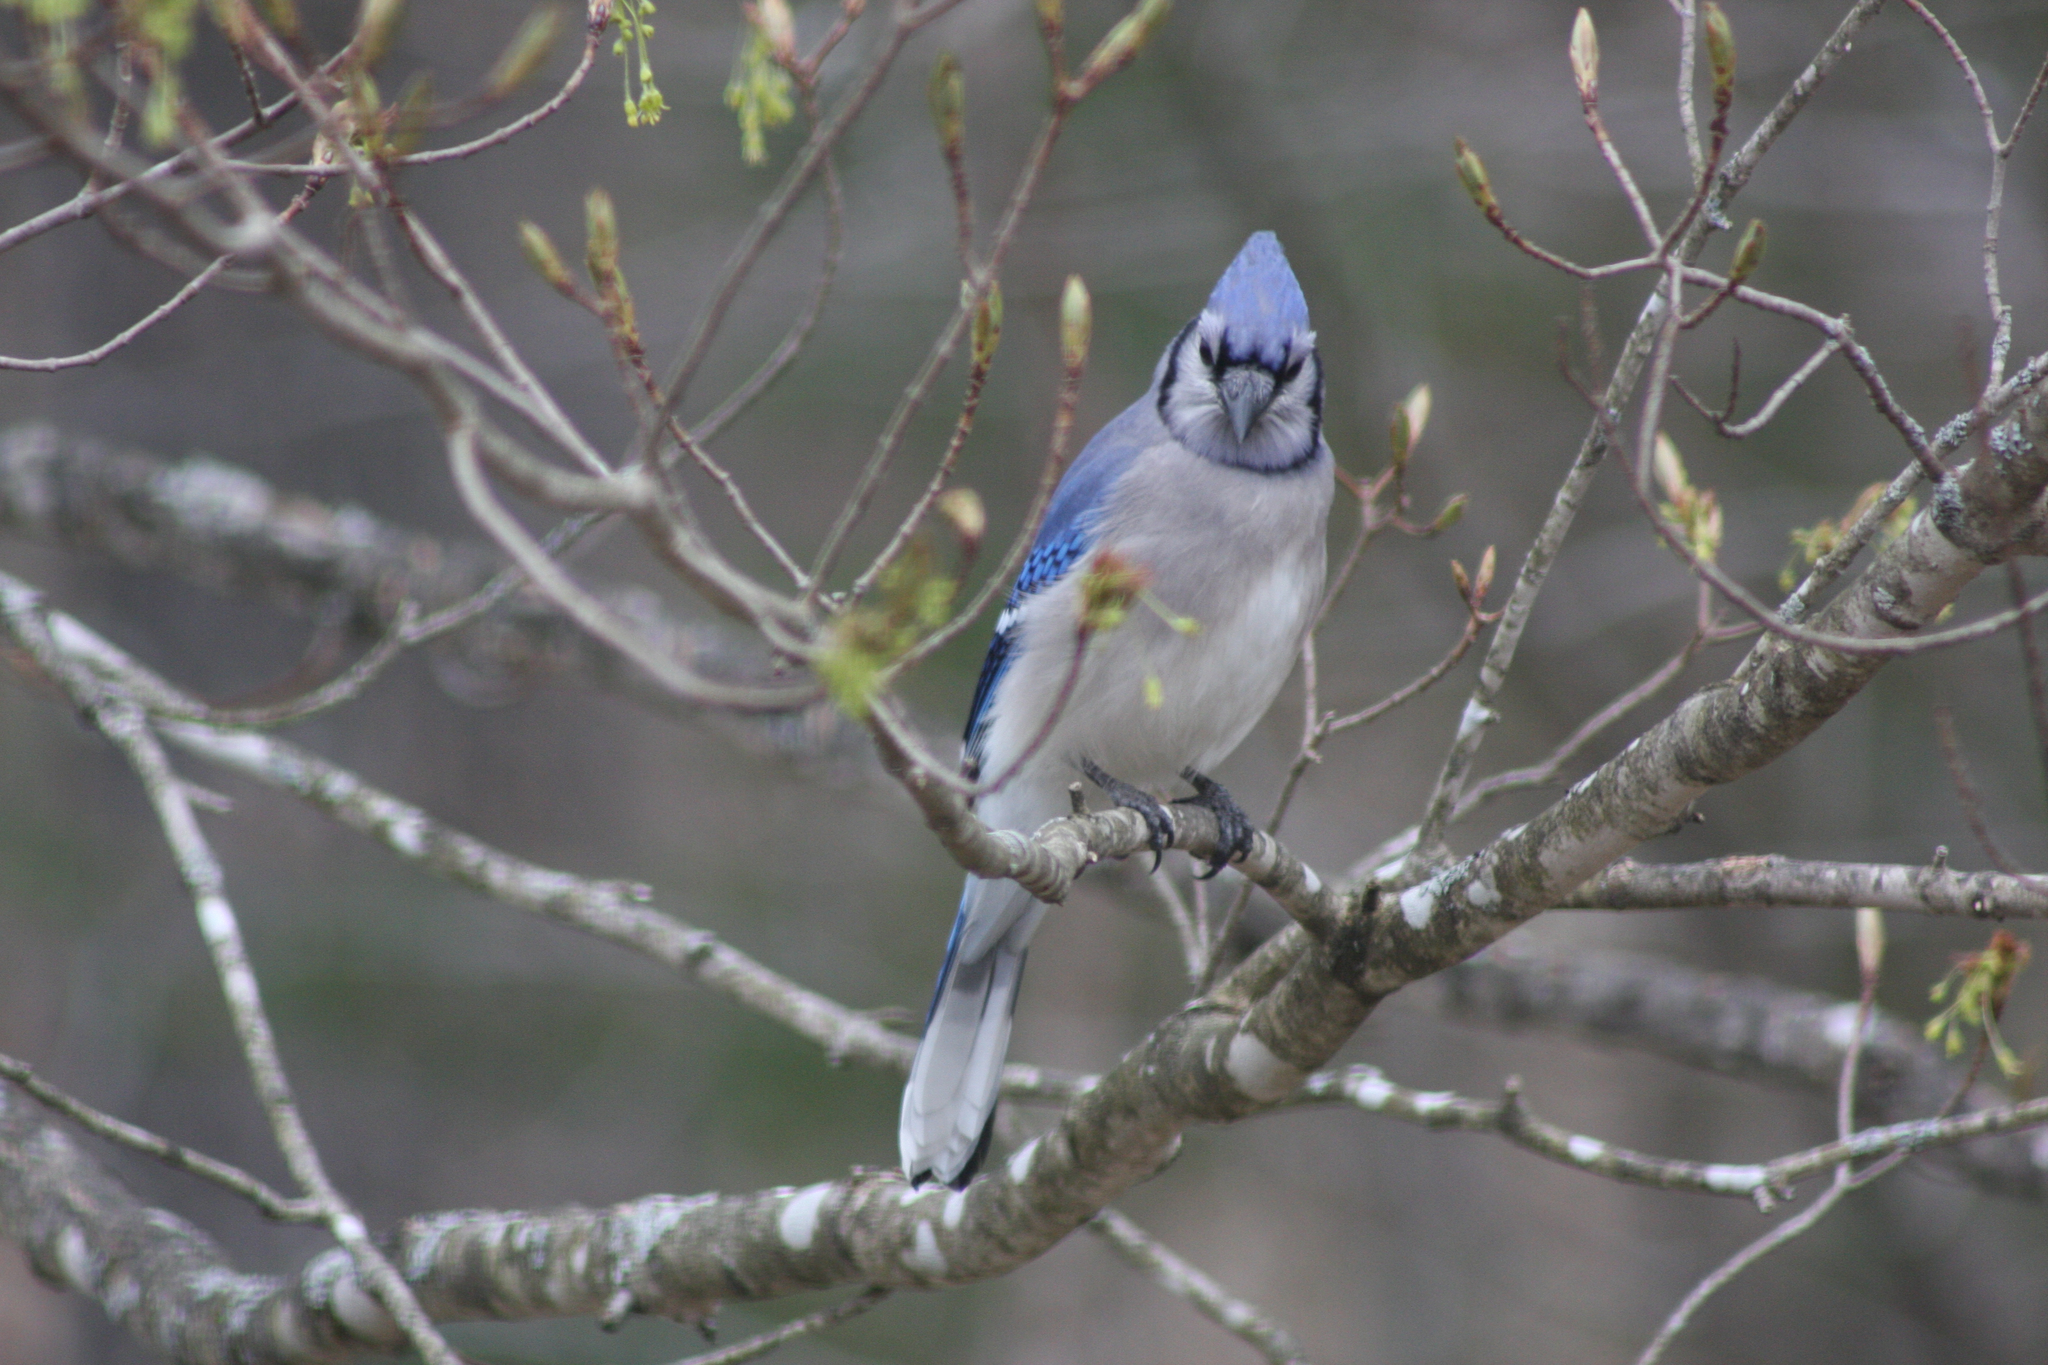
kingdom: Animalia
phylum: Chordata
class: Aves
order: Passeriformes
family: Corvidae
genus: Cyanocitta
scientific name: Cyanocitta cristata
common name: Blue jay
